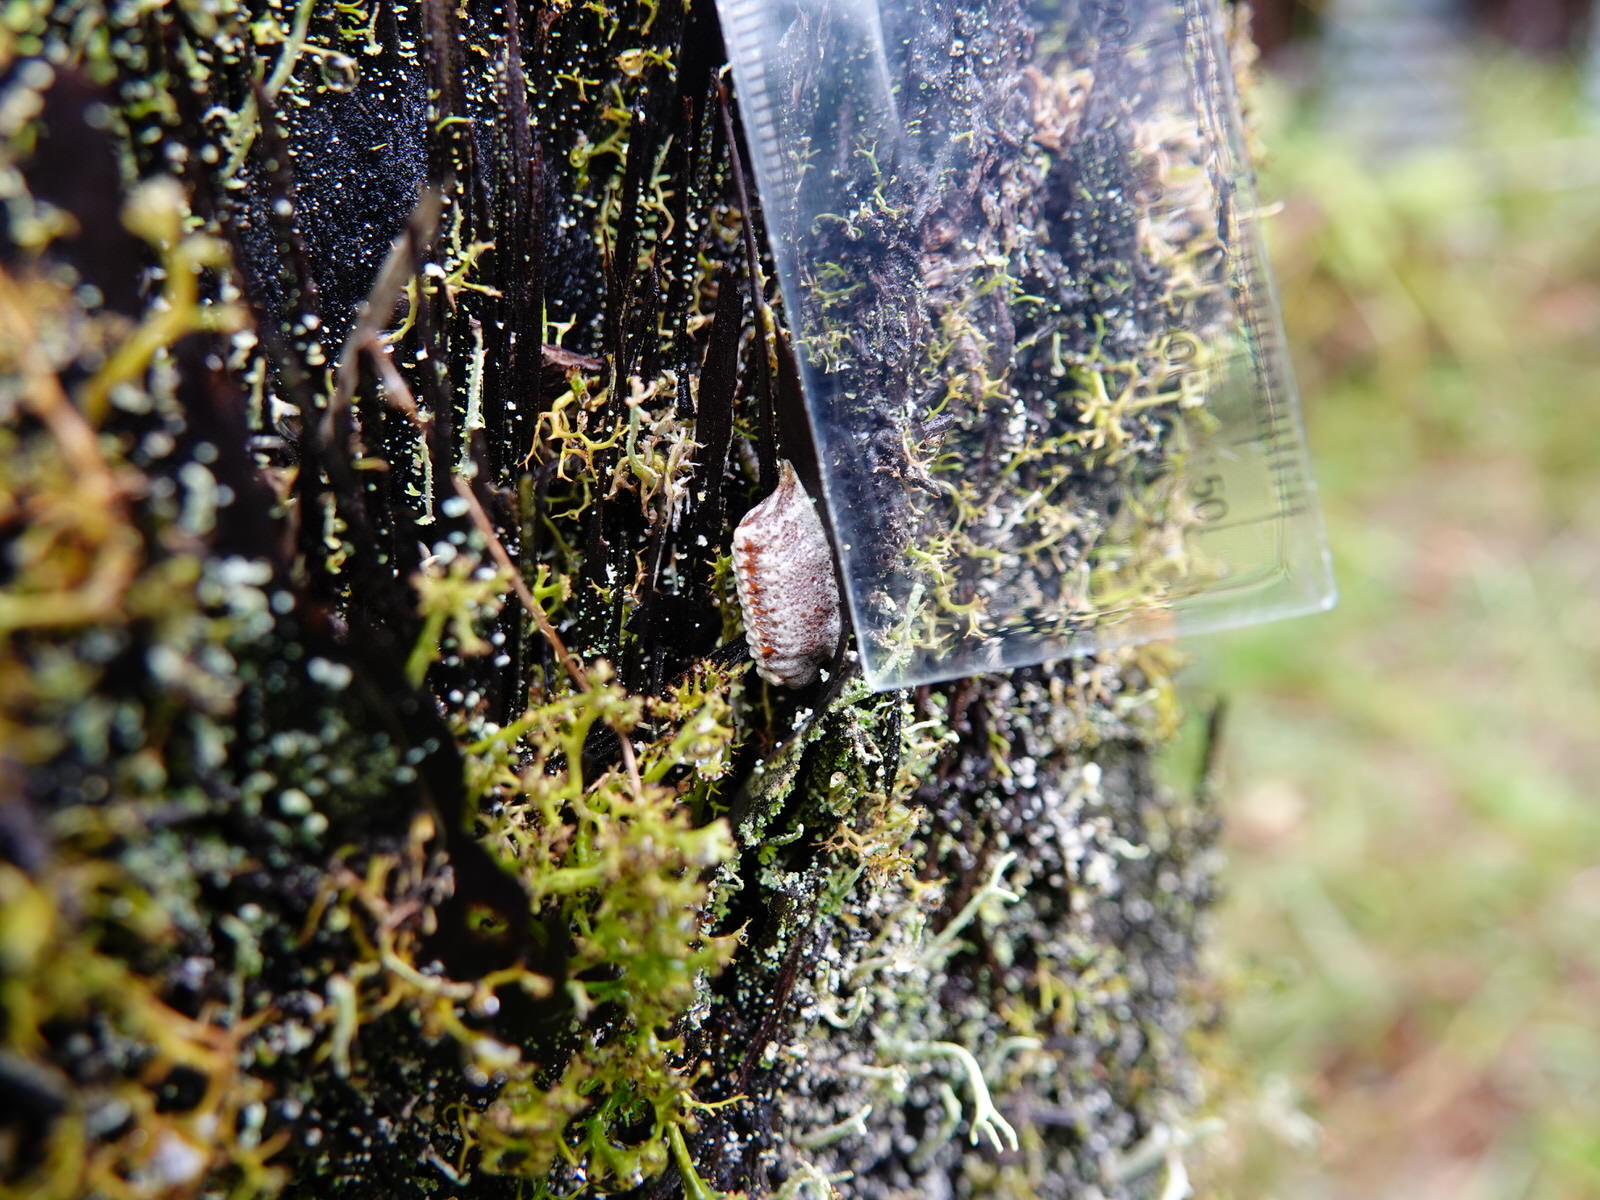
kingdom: Animalia
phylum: Arthropoda
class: Insecta
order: Mantodea
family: Mantidae
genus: Orthodera
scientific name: Orthodera novaezealandiae
